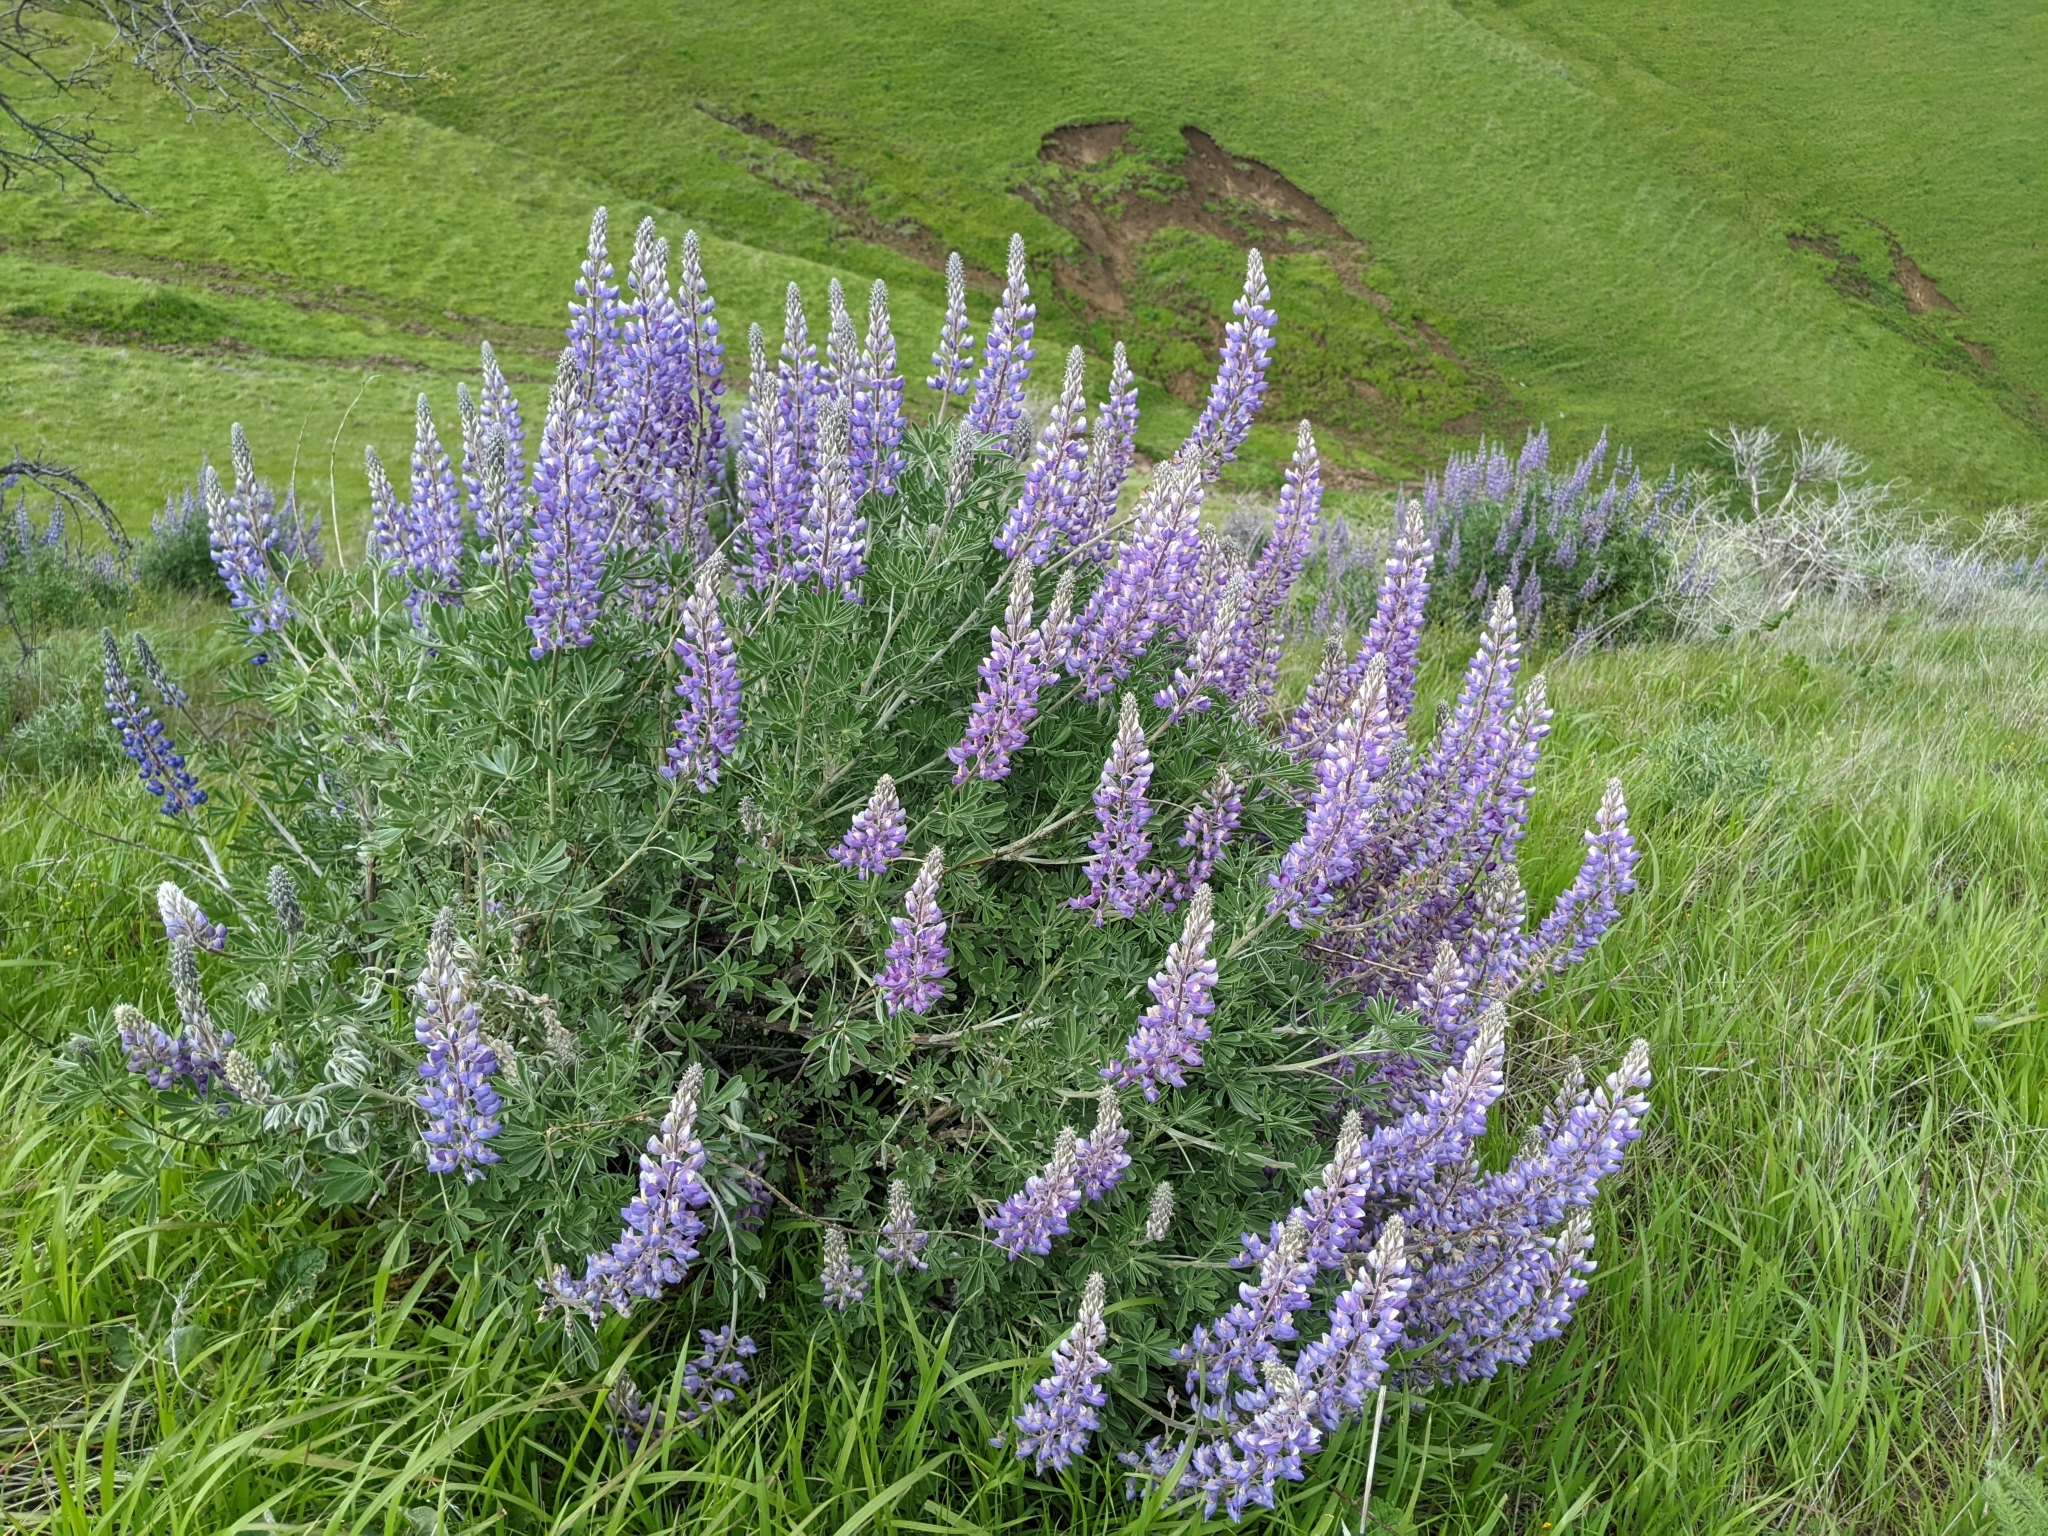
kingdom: Plantae
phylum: Tracheophyta
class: Magnoliopsida
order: Fabales
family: Fabaceae
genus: Lupinus
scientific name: Lupinus albifrons
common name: Foothill lupine
